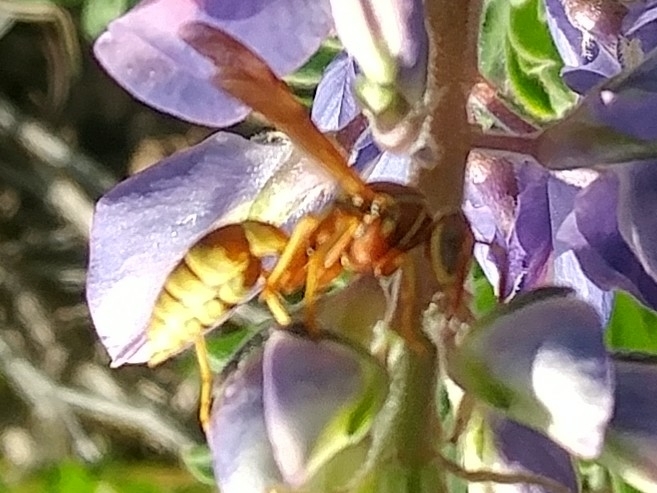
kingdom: Animalia
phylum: Arthropoda
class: Insecta
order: Hymenoptera
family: Eumenidae
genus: Polistes
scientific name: Polistes dorsalis
